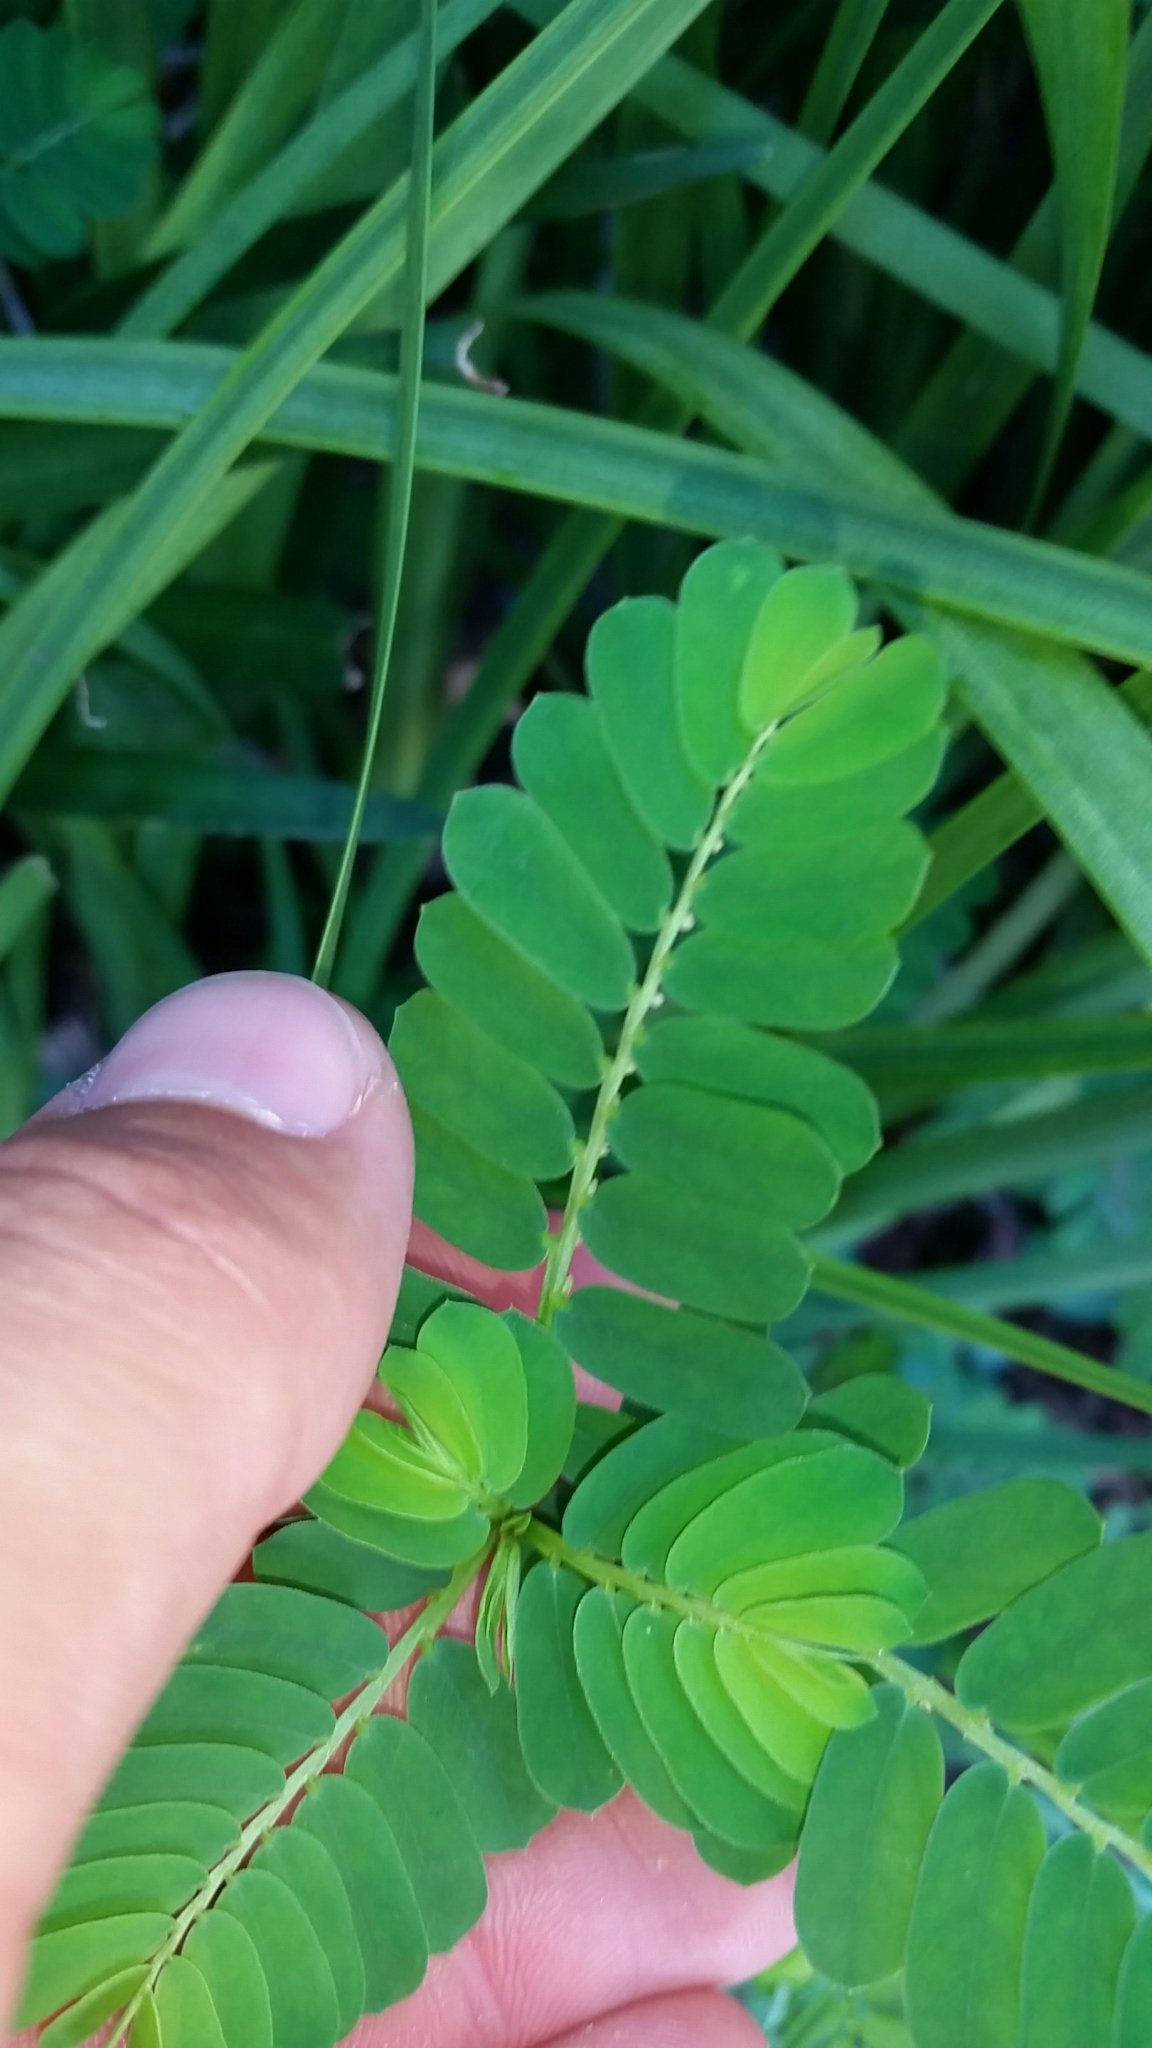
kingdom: Plantae
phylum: Tracheophyta
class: Magnoliopsida
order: Malpighiales
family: Phyllanthaceae
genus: Phyllanthus
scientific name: Phyllanthus urinaria
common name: Chamber bitter
